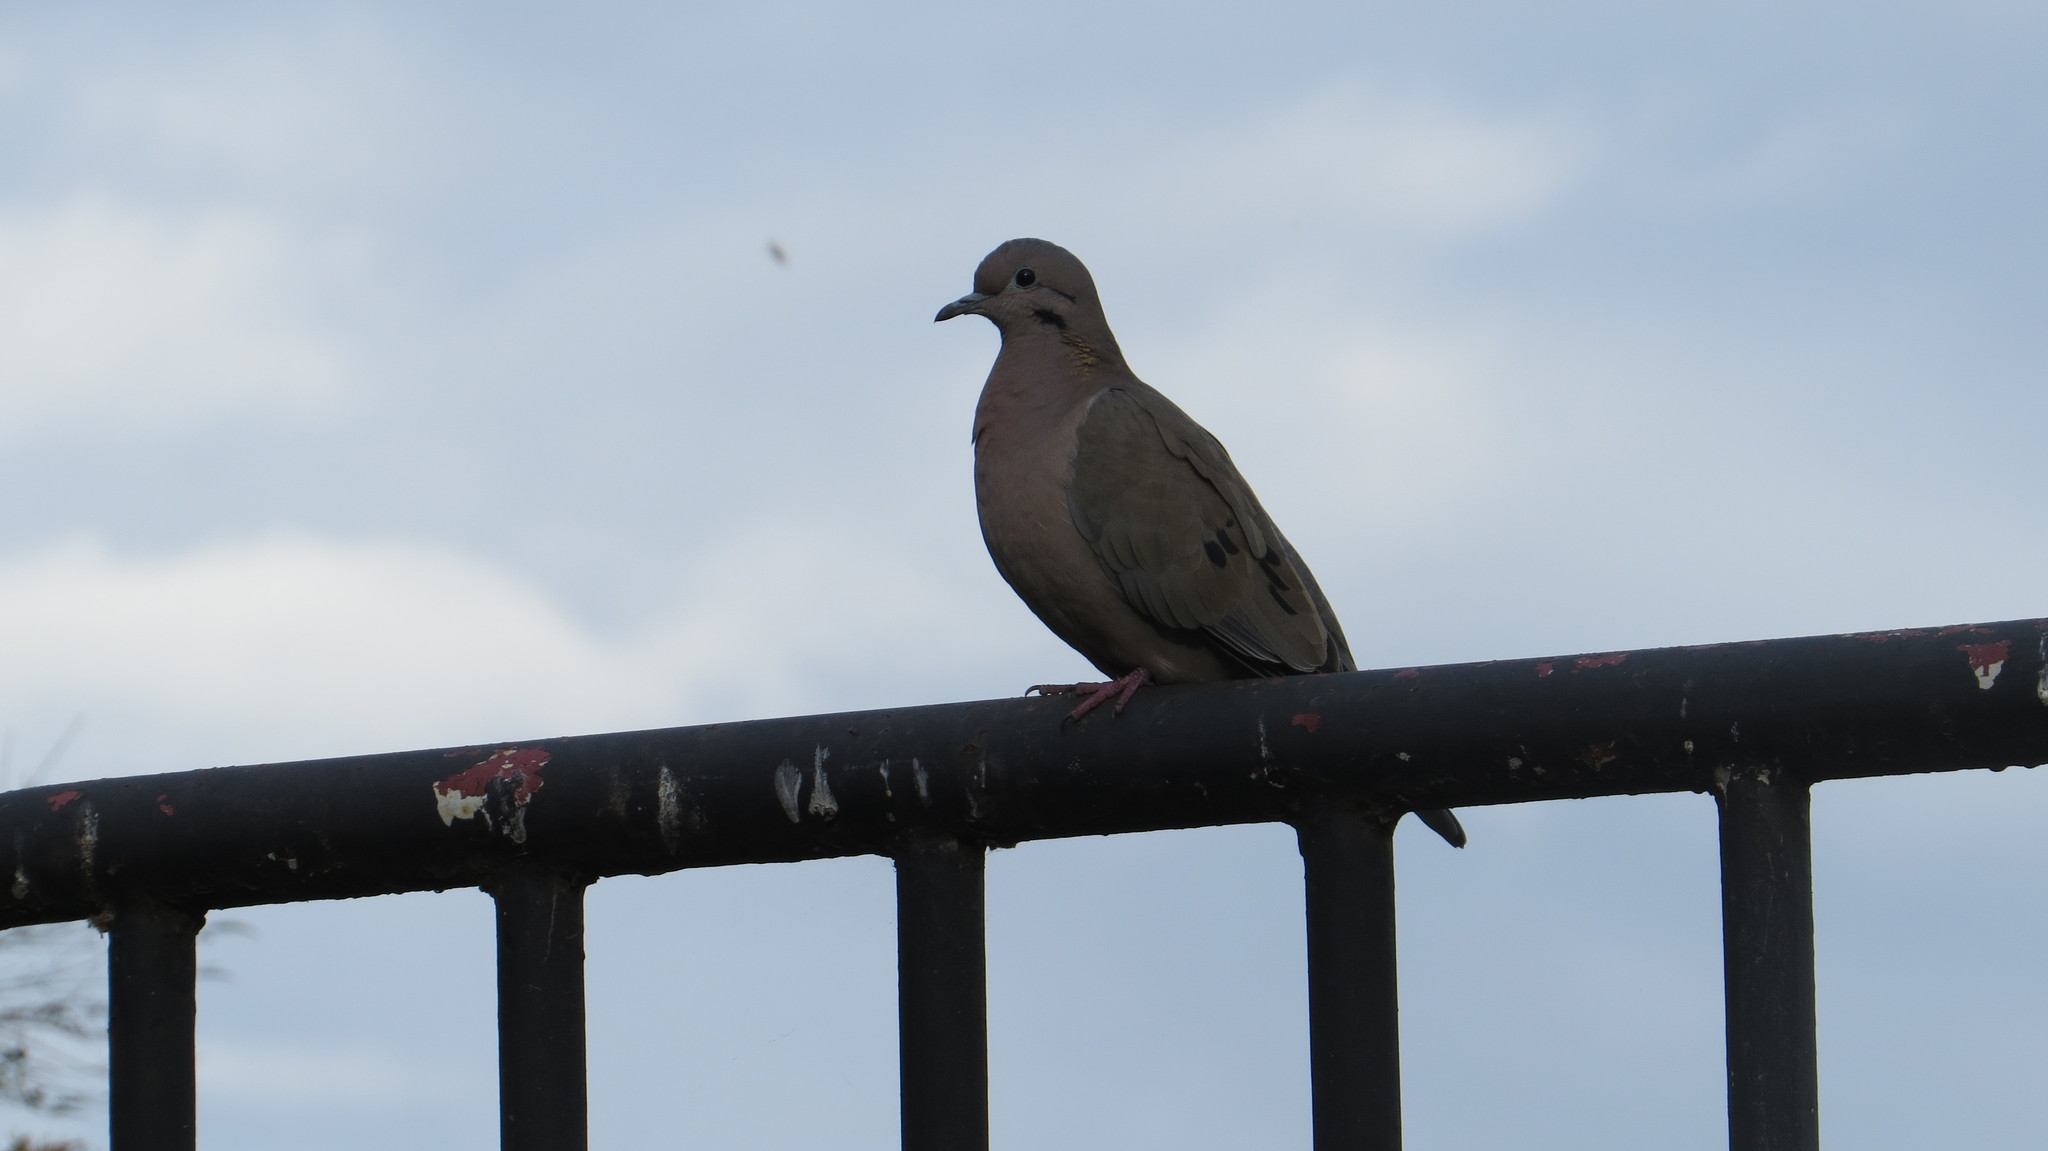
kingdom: Animalia
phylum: Chordata
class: Aves
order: Columbiformes
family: Columbidae
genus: Zenaida
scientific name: Zenaida auriculata
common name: Eared dove
